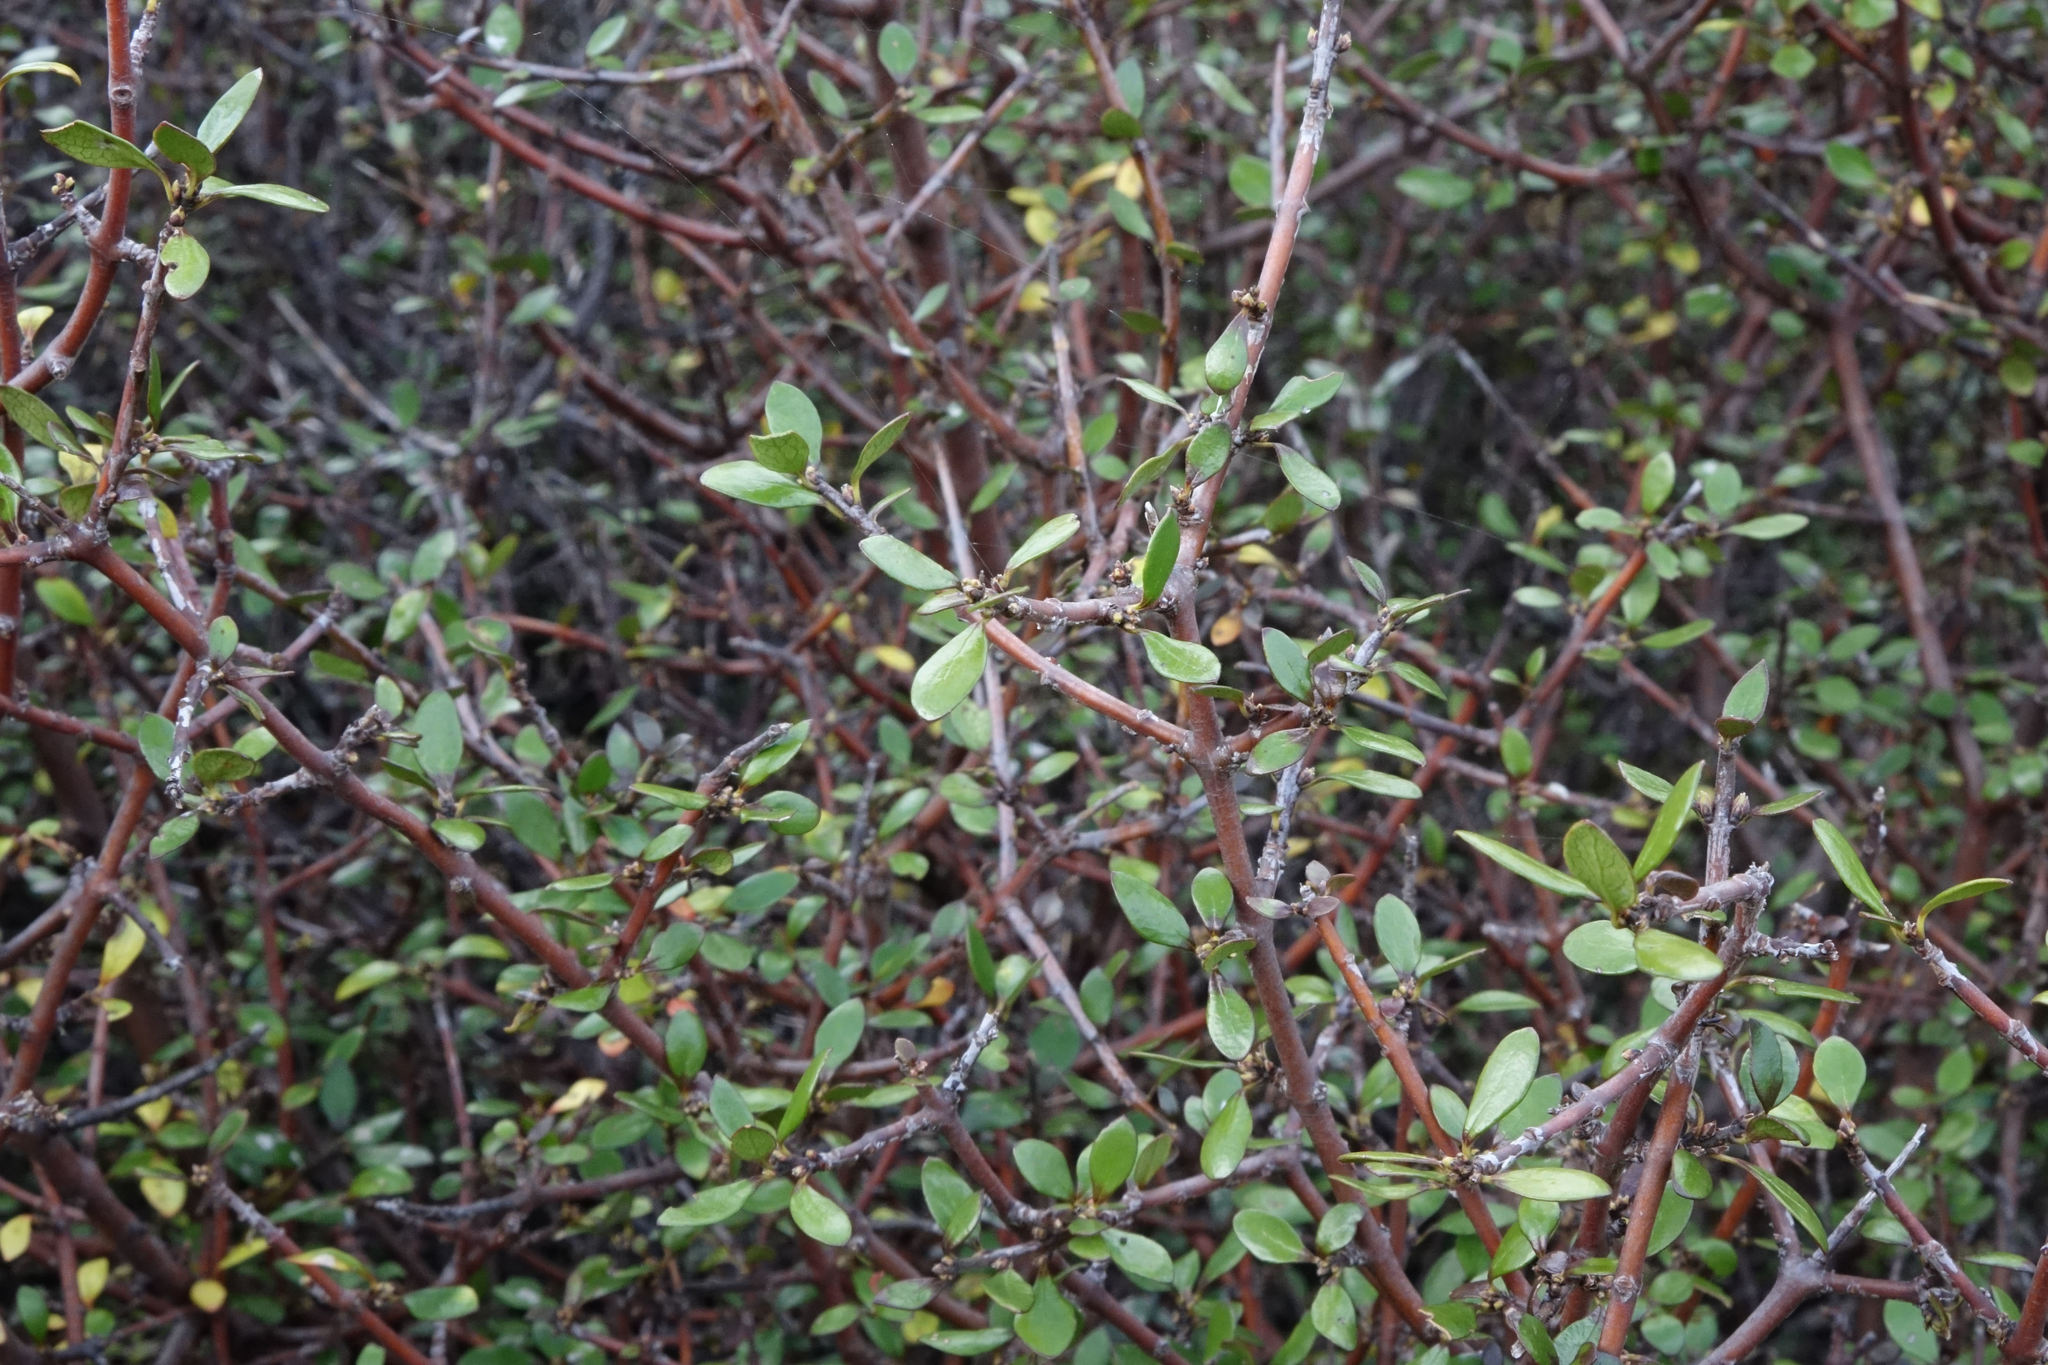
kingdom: Plantae
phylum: Tracheophyta
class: Magnoliopsida
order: Oxalidales
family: Elaeocarpaceae
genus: Aristotelia
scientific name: Aristotelia fruticosa
